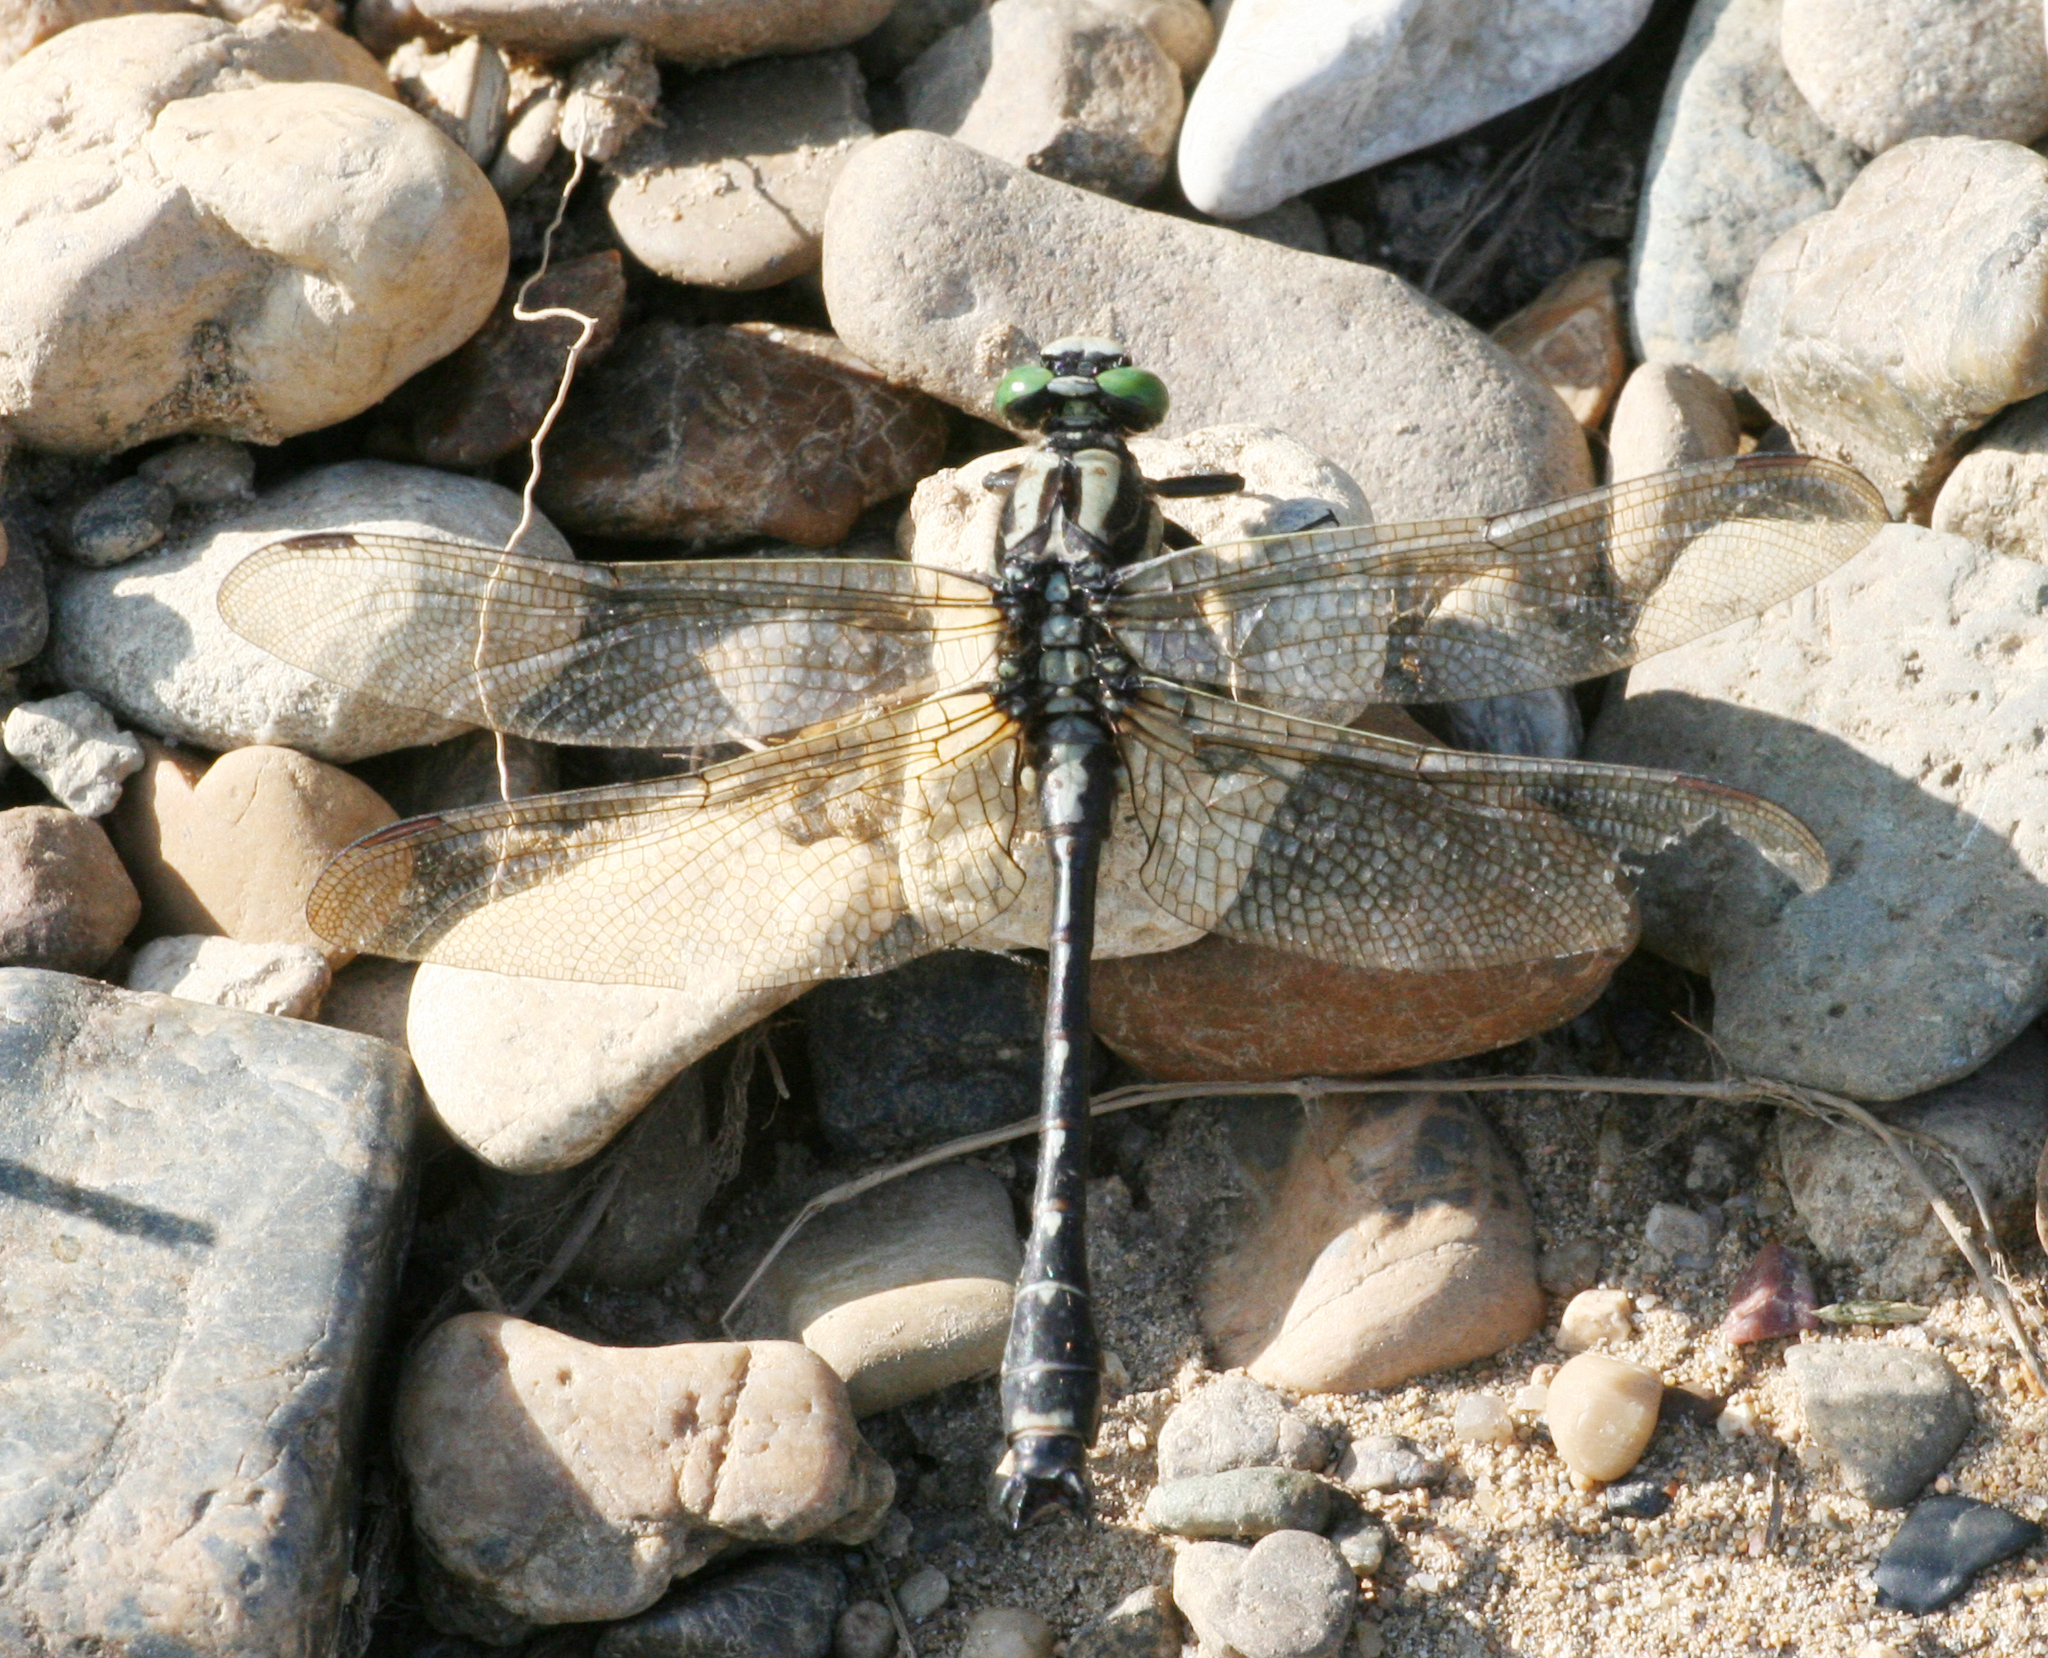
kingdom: Animalia
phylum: Arthropoda
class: Insecta
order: Odonata
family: Gomphidae
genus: Shaogomphus
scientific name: Shaogomphus postocularis
